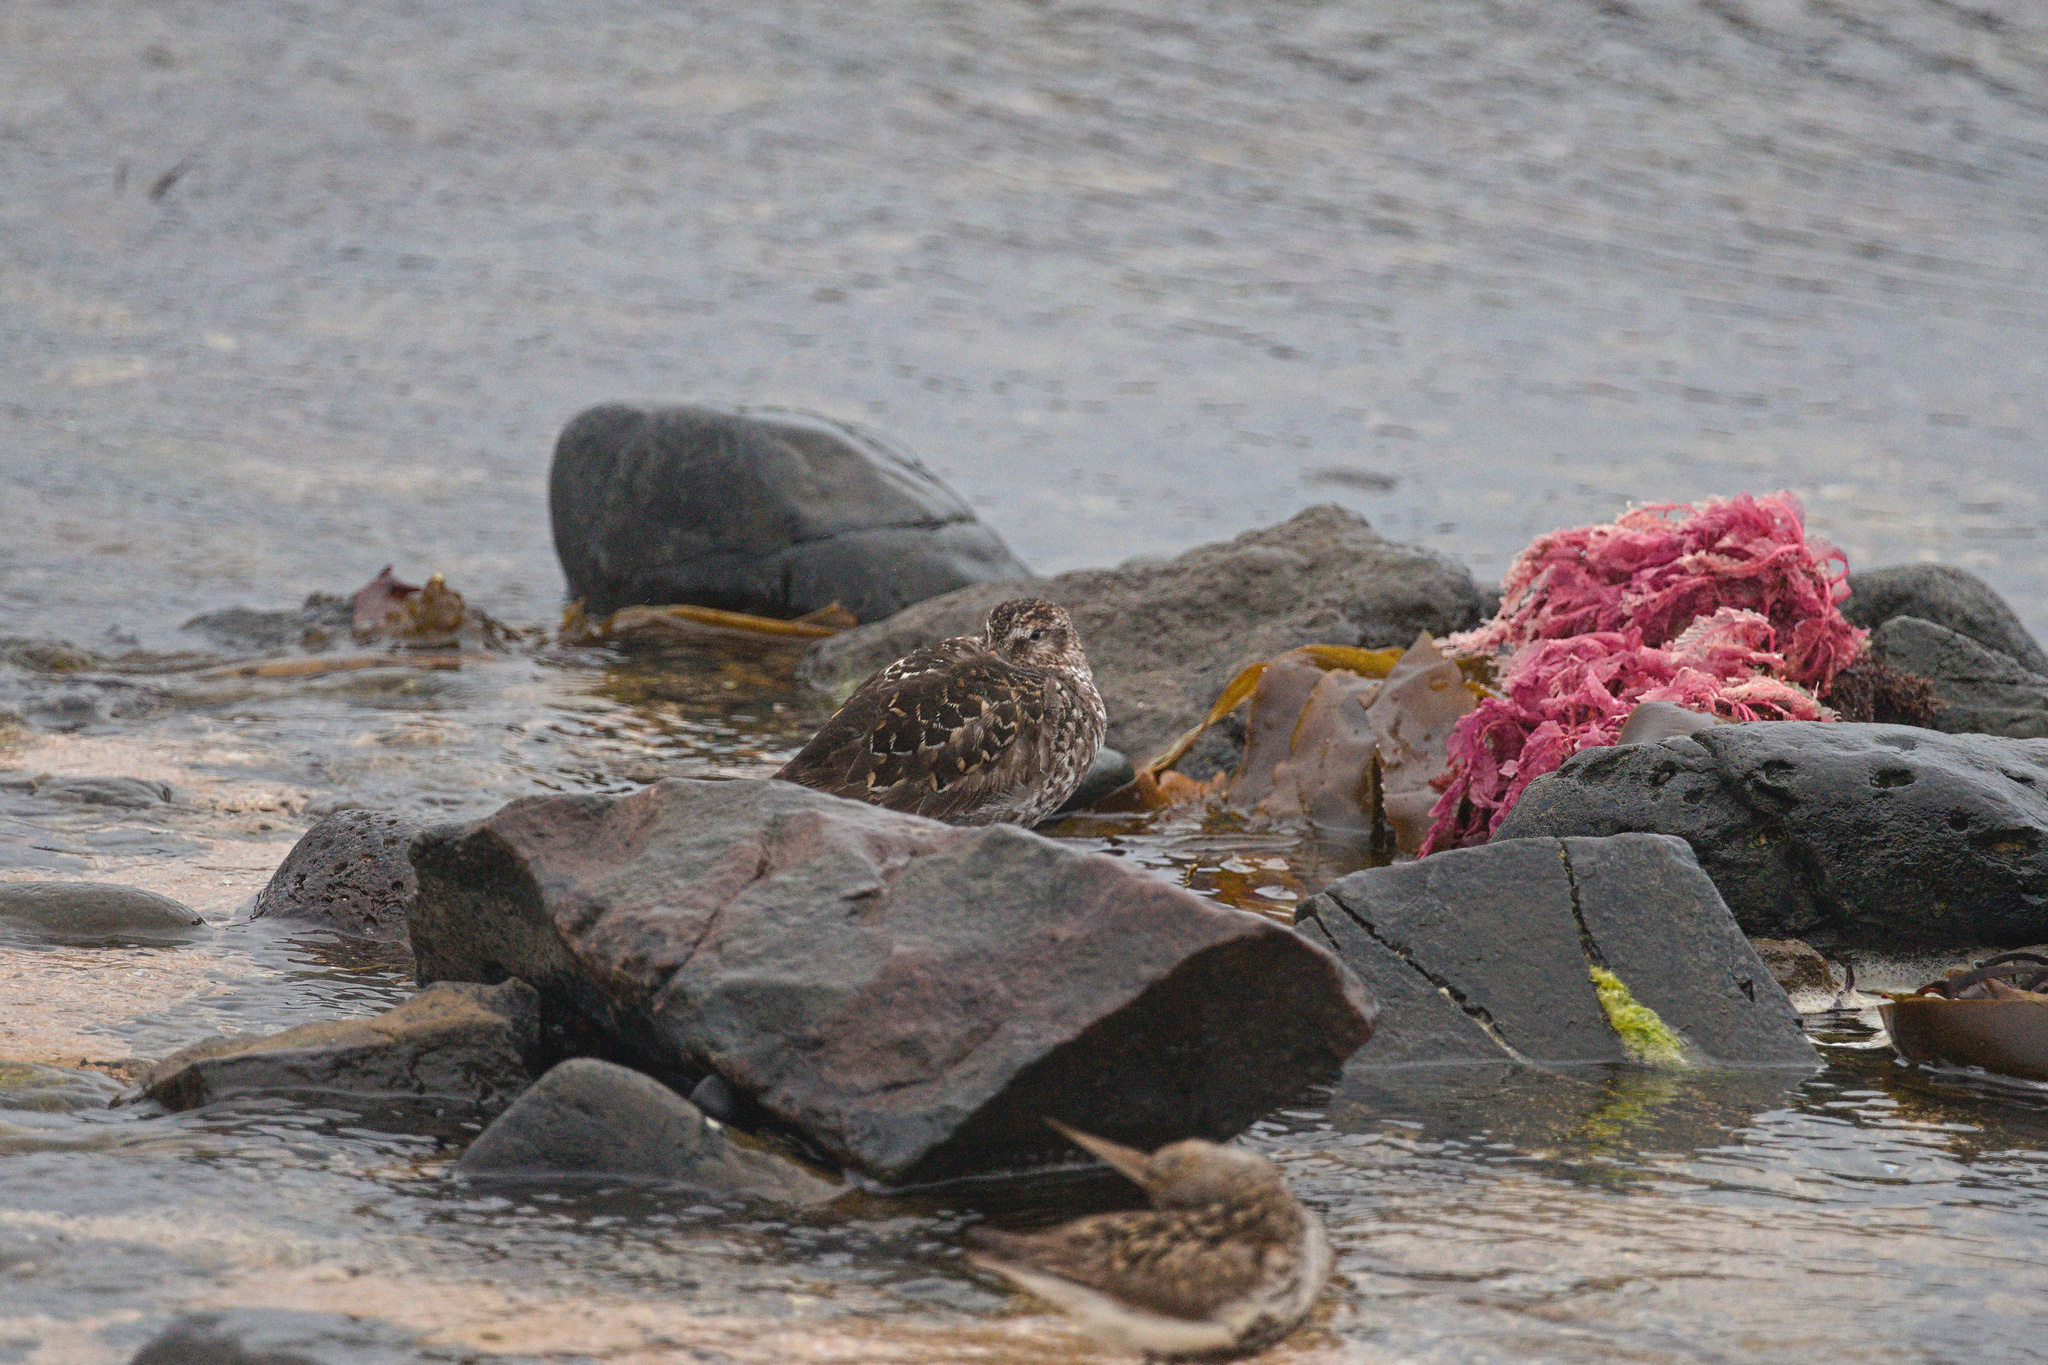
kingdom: Animalia
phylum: Chordata
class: Aves
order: Anseriformes
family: Anatidae
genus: Somateria
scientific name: Somateria mollissima
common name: Common eider
